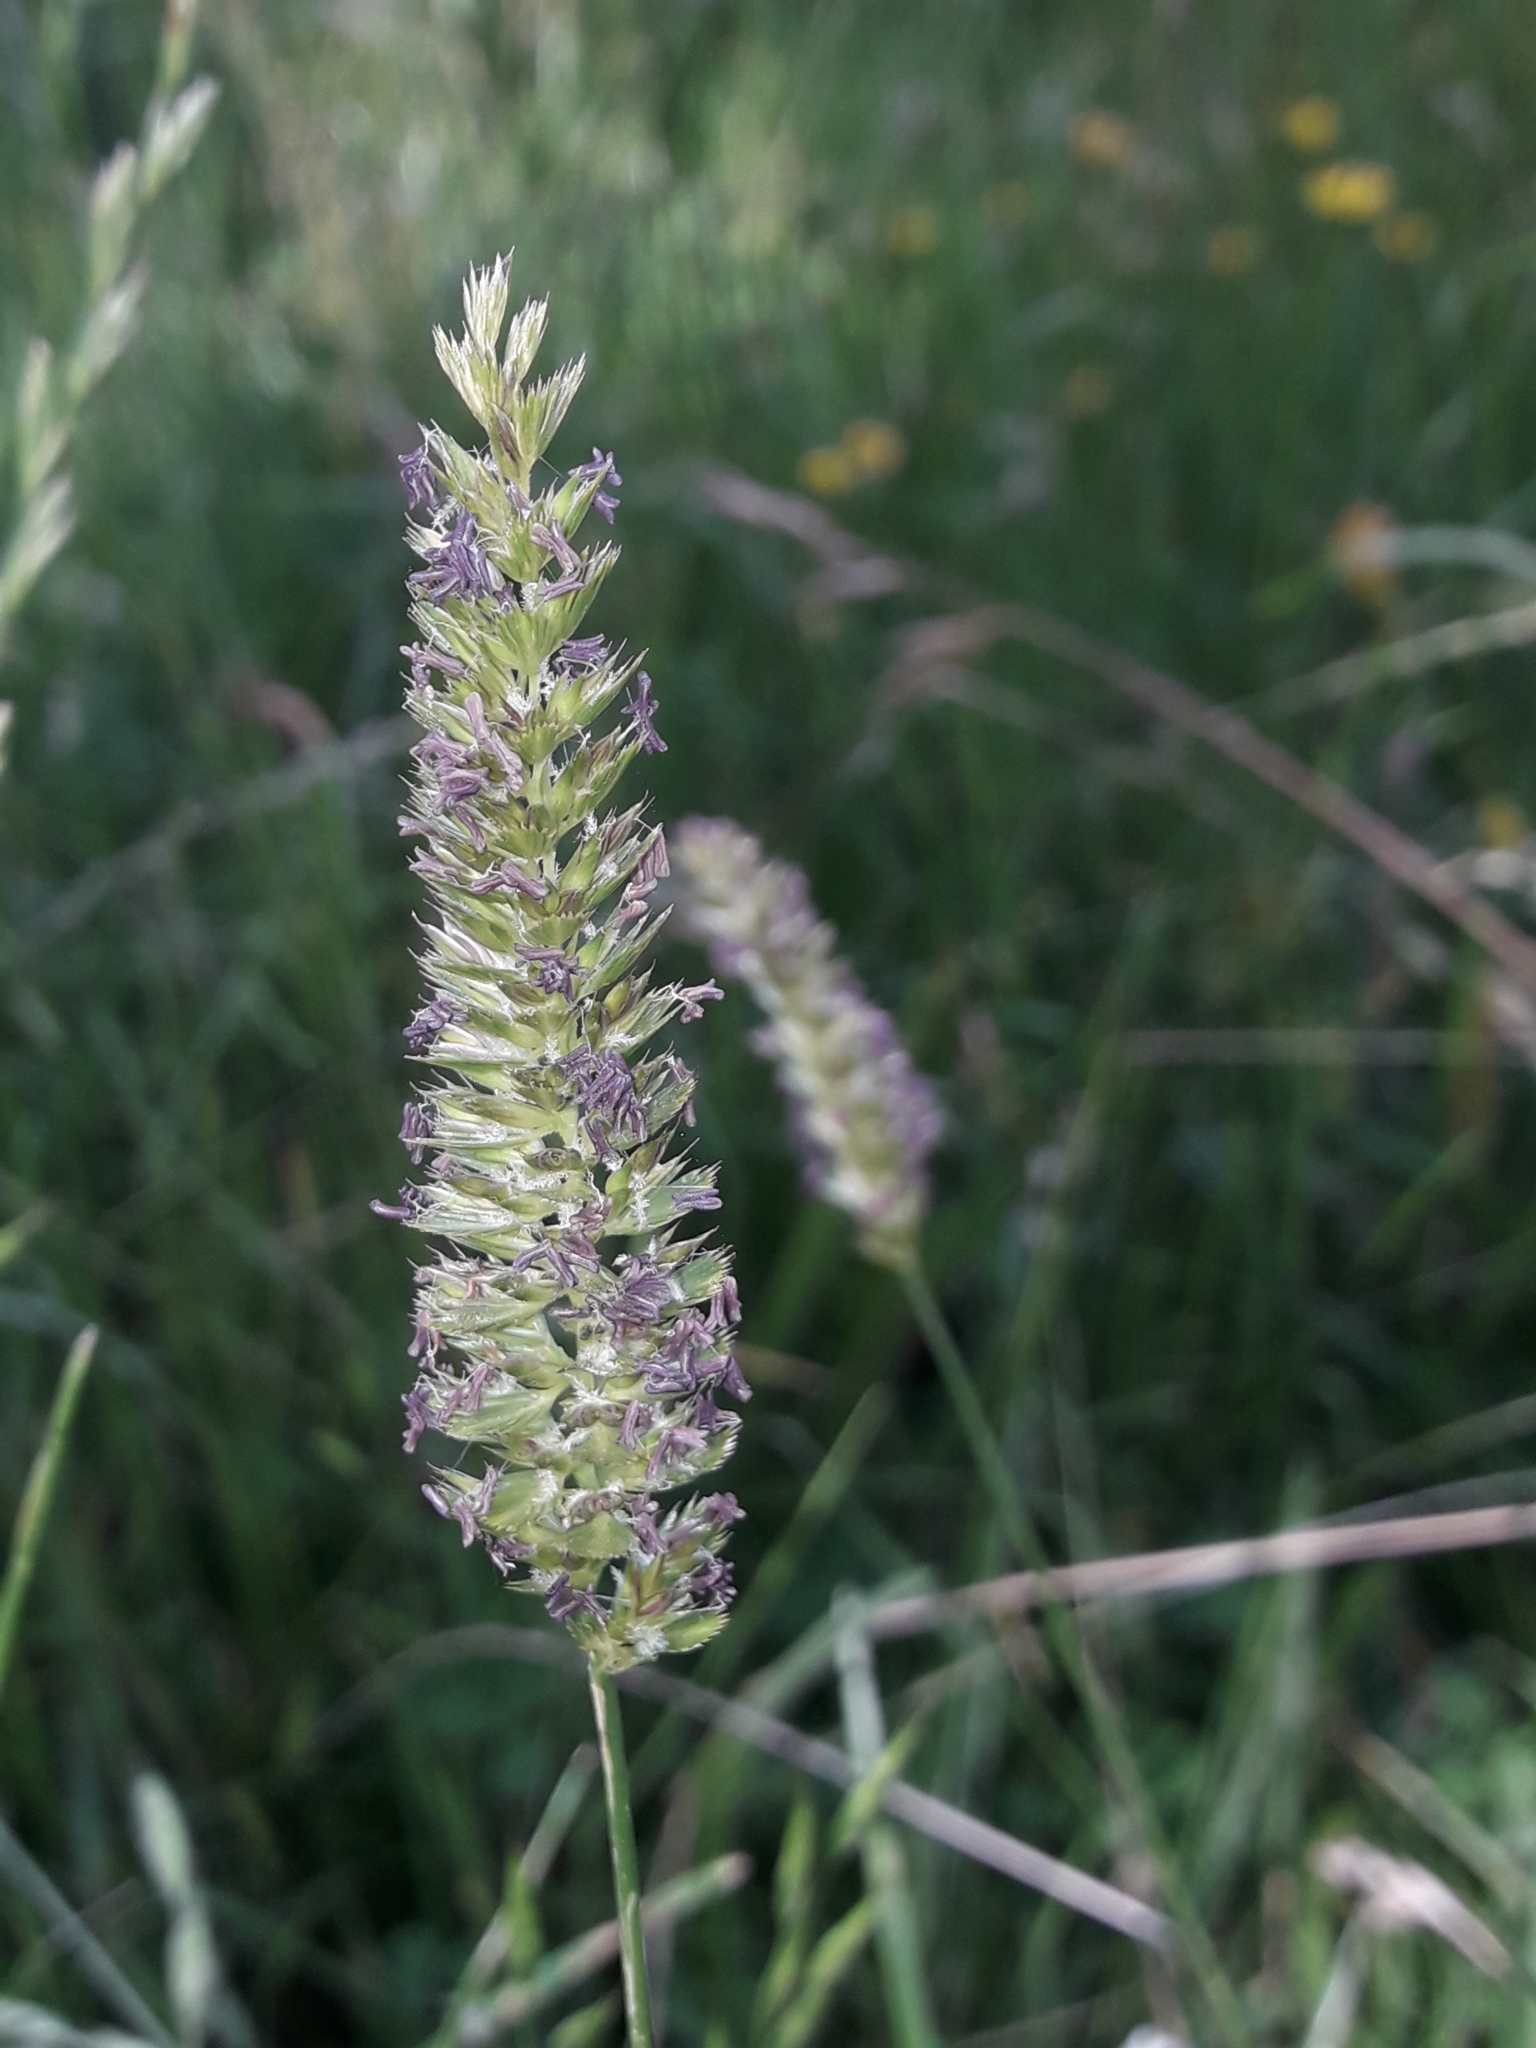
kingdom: Plantae
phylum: Tracheophyta
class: Liliopsida
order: Poales
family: Poaceae
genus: Cynosurus
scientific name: Cynosurus cristatus
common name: Crested dog's-tail
